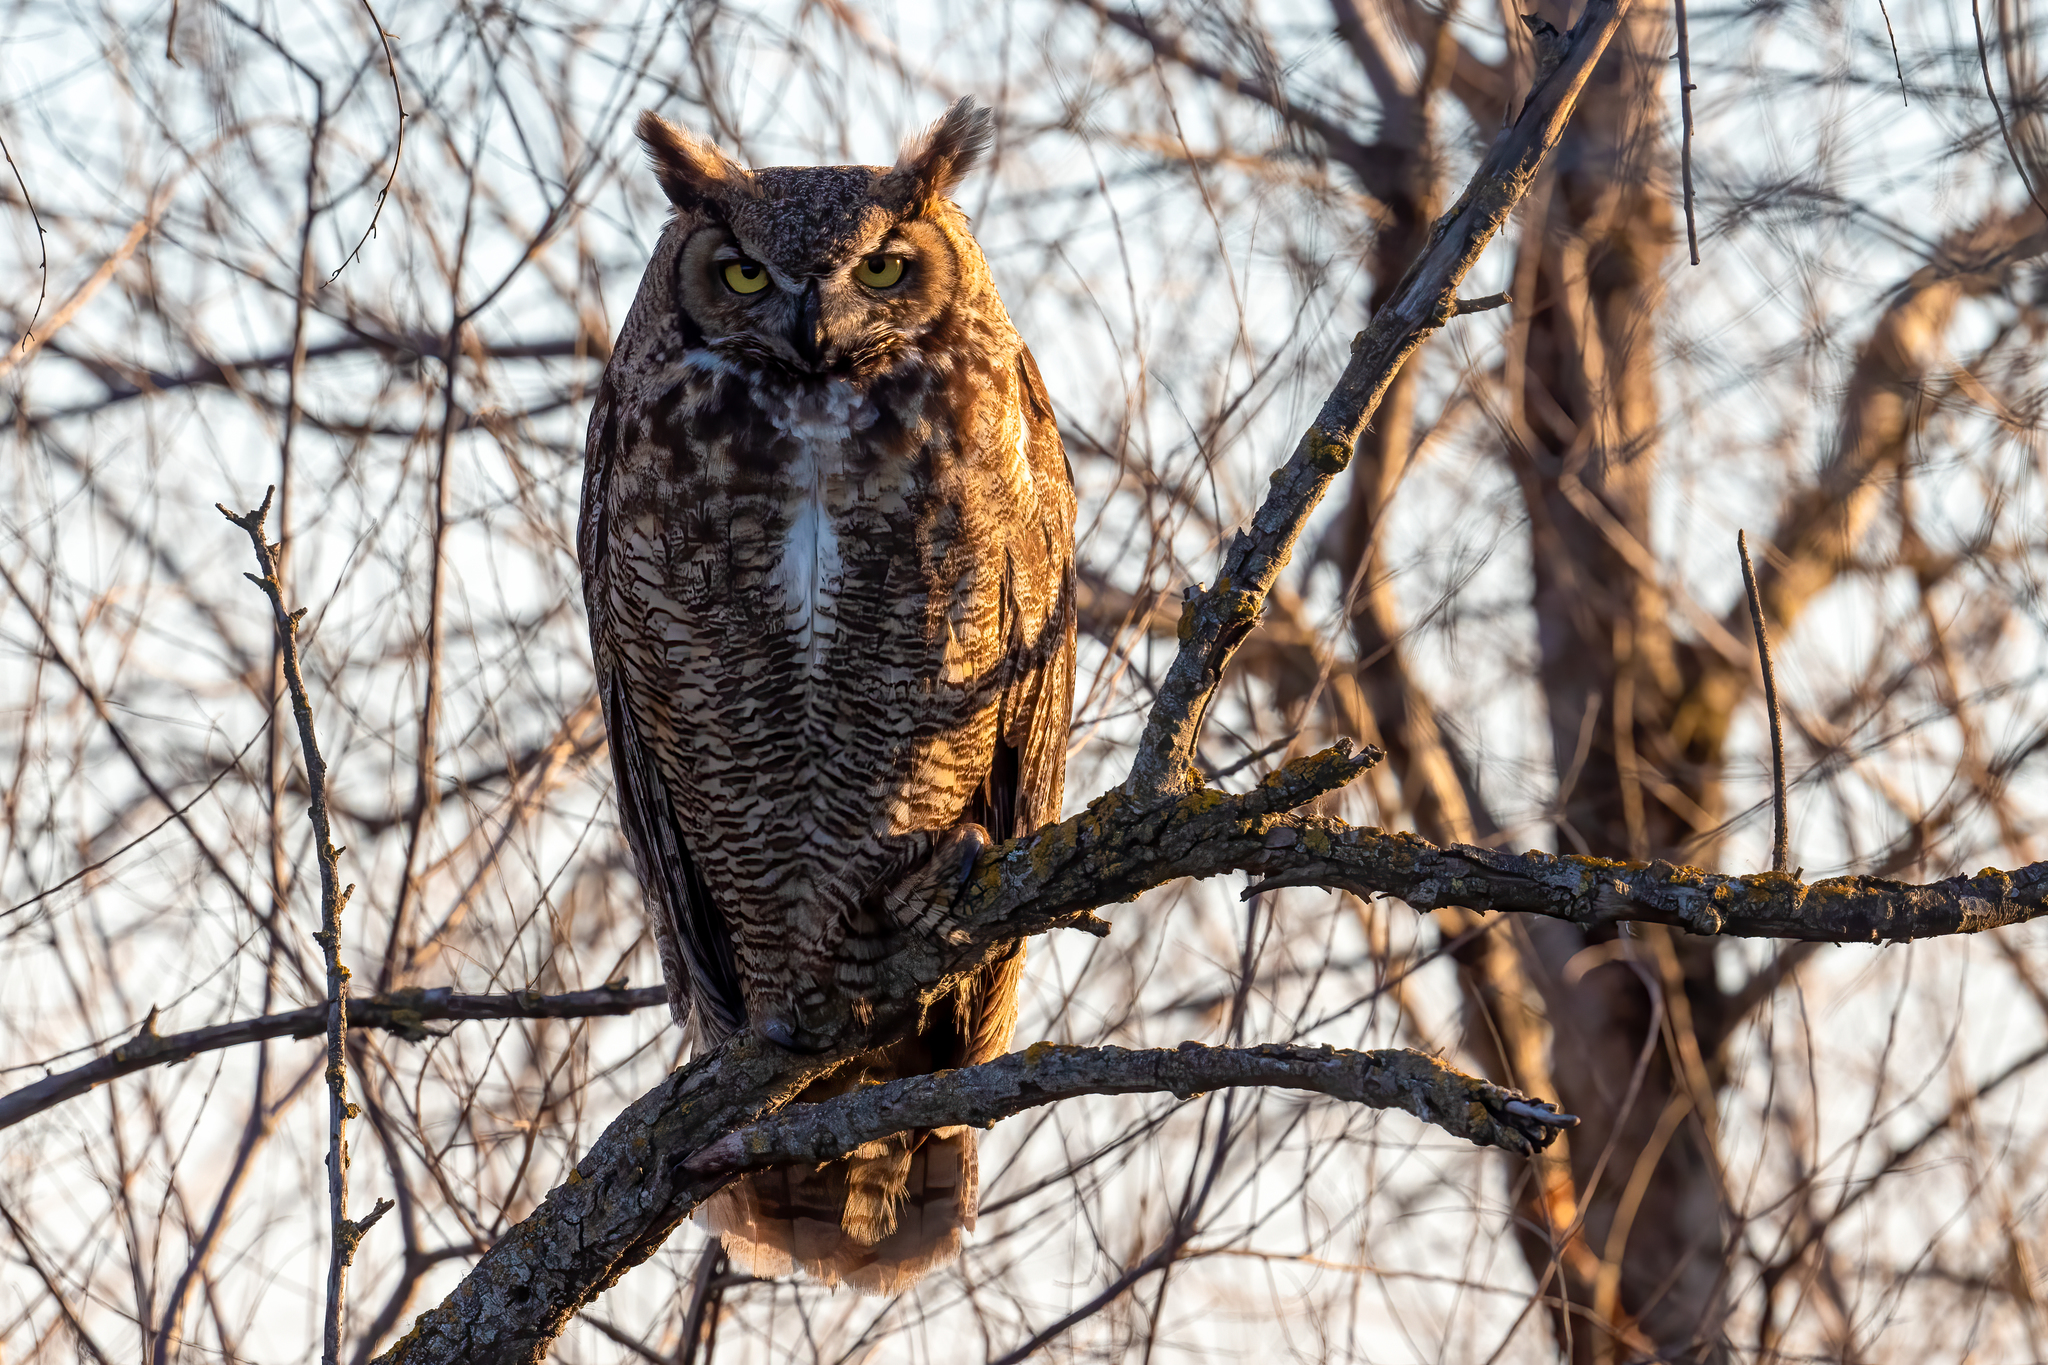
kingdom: Animalia
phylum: Chordata
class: Aves
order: Strigiformes
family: Strigidae
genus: Bubo
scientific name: Bubo virginianus
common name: Great horned owl
